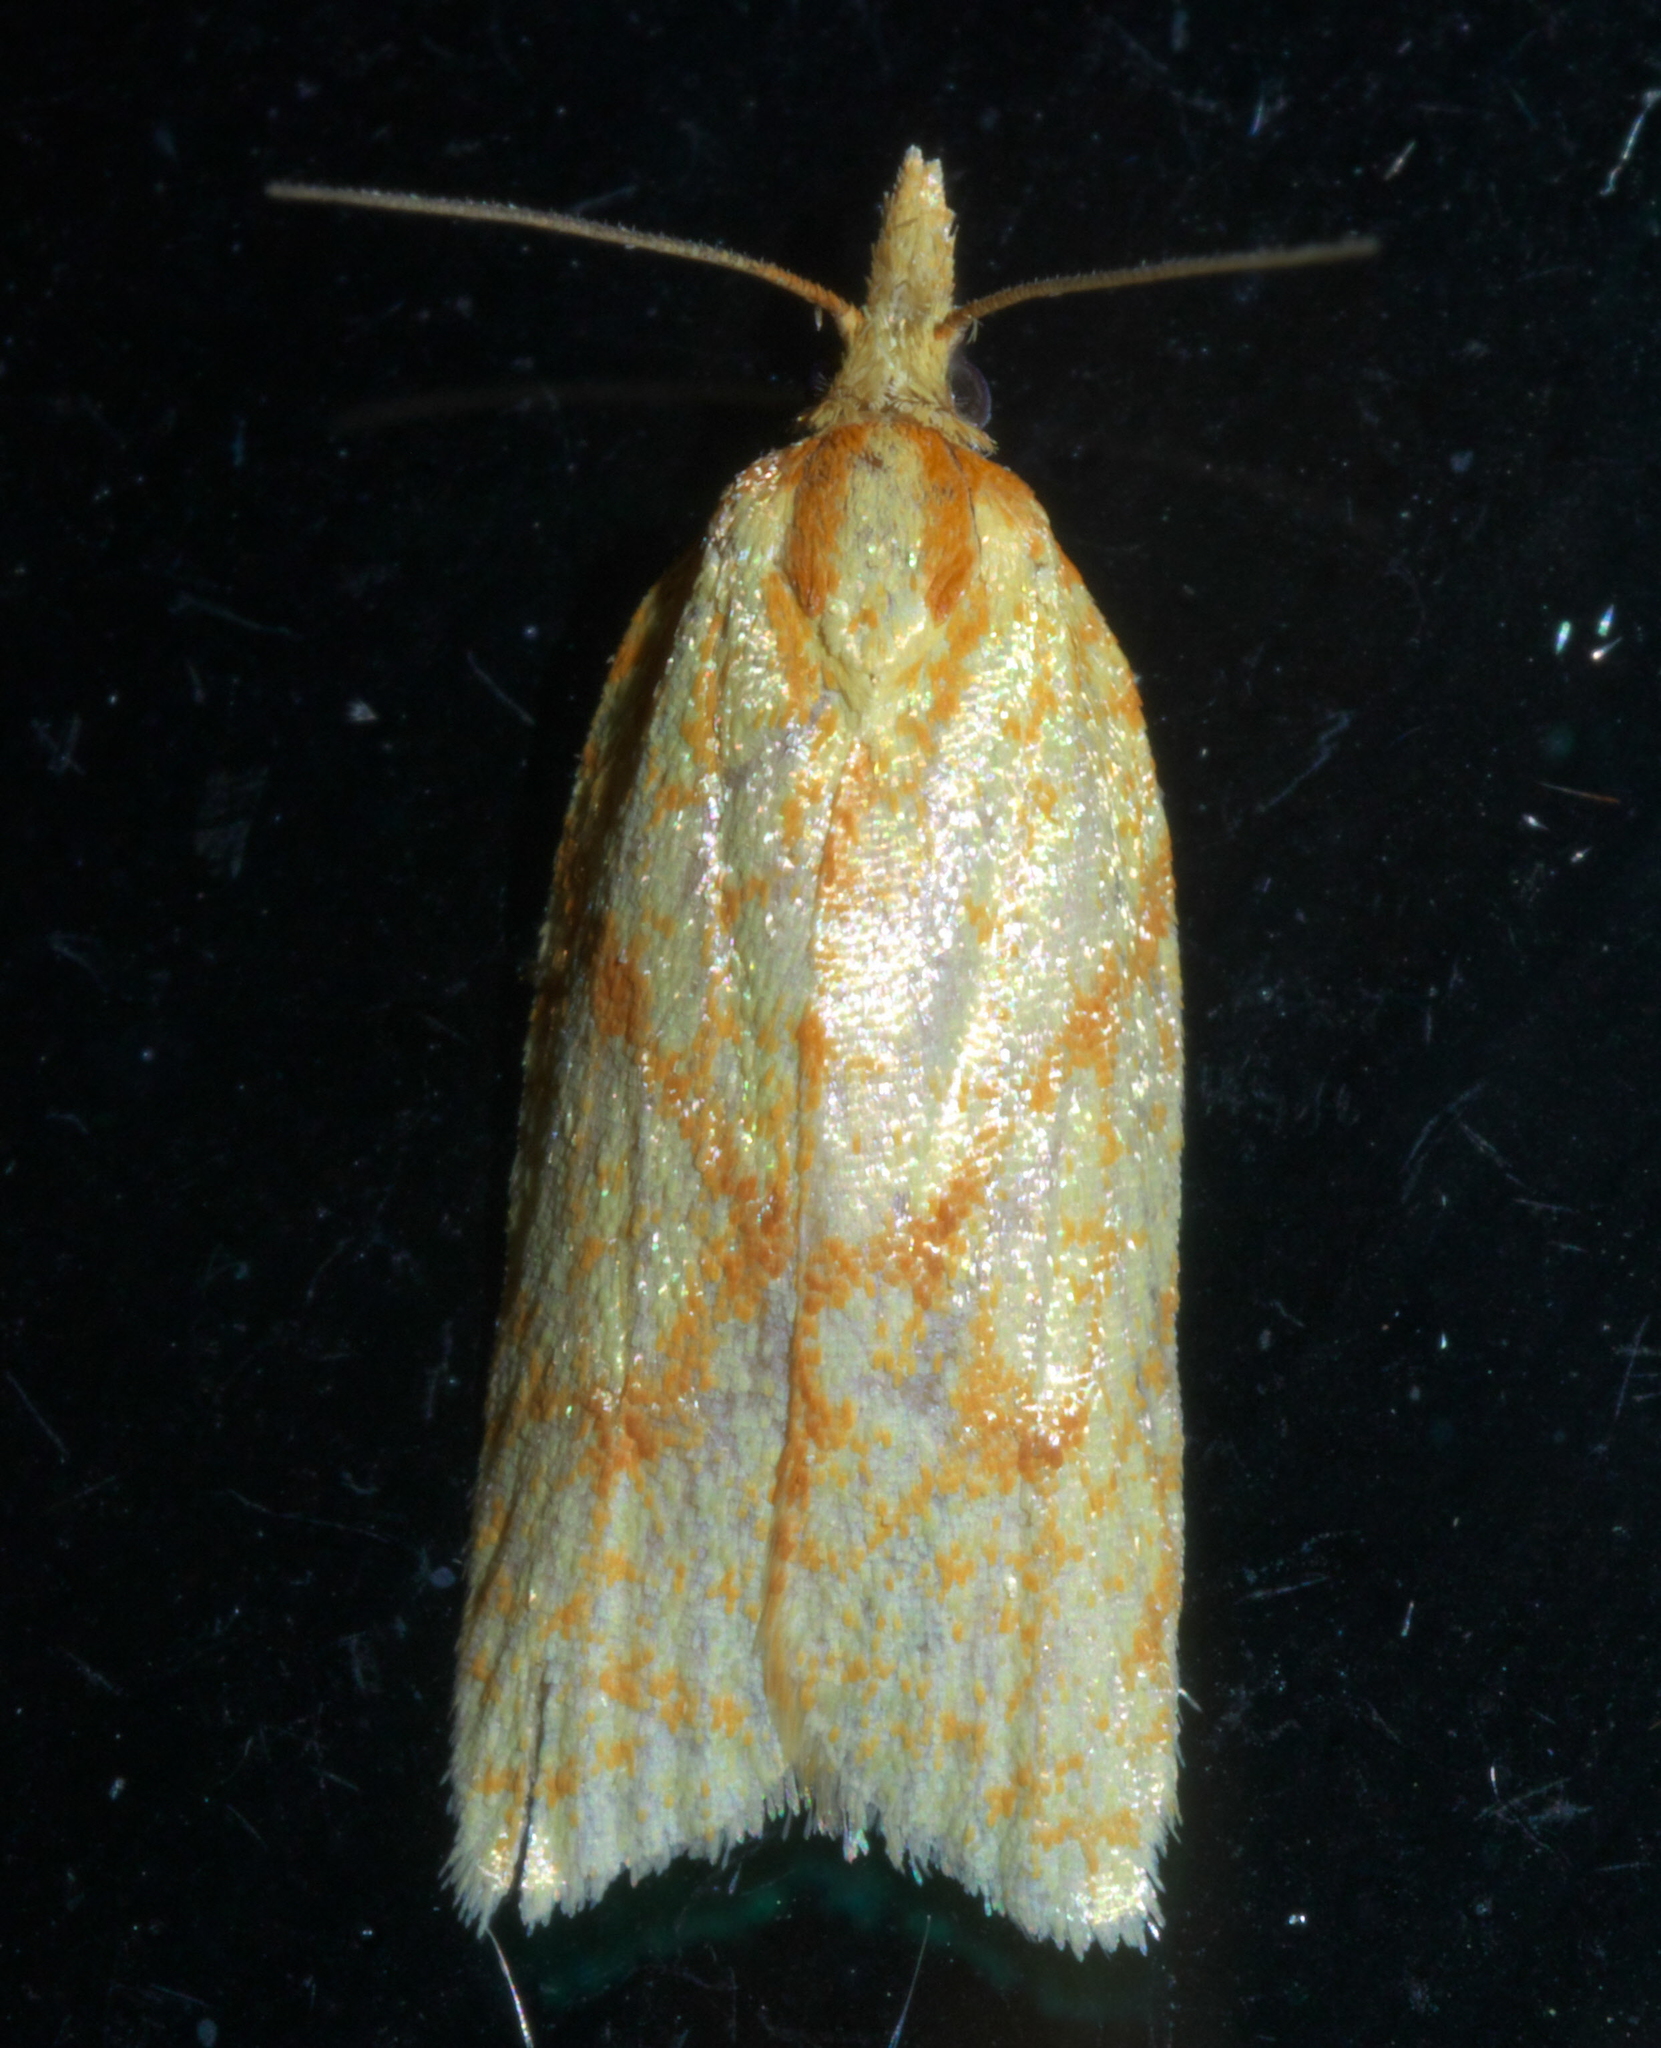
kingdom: Animalia
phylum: Arthropoda
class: Insecta
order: Lepidoptera
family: Tortricidae
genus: Sparganothis
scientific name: Sparganothis sulfureana
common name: Sparganothis fruitworm moth
